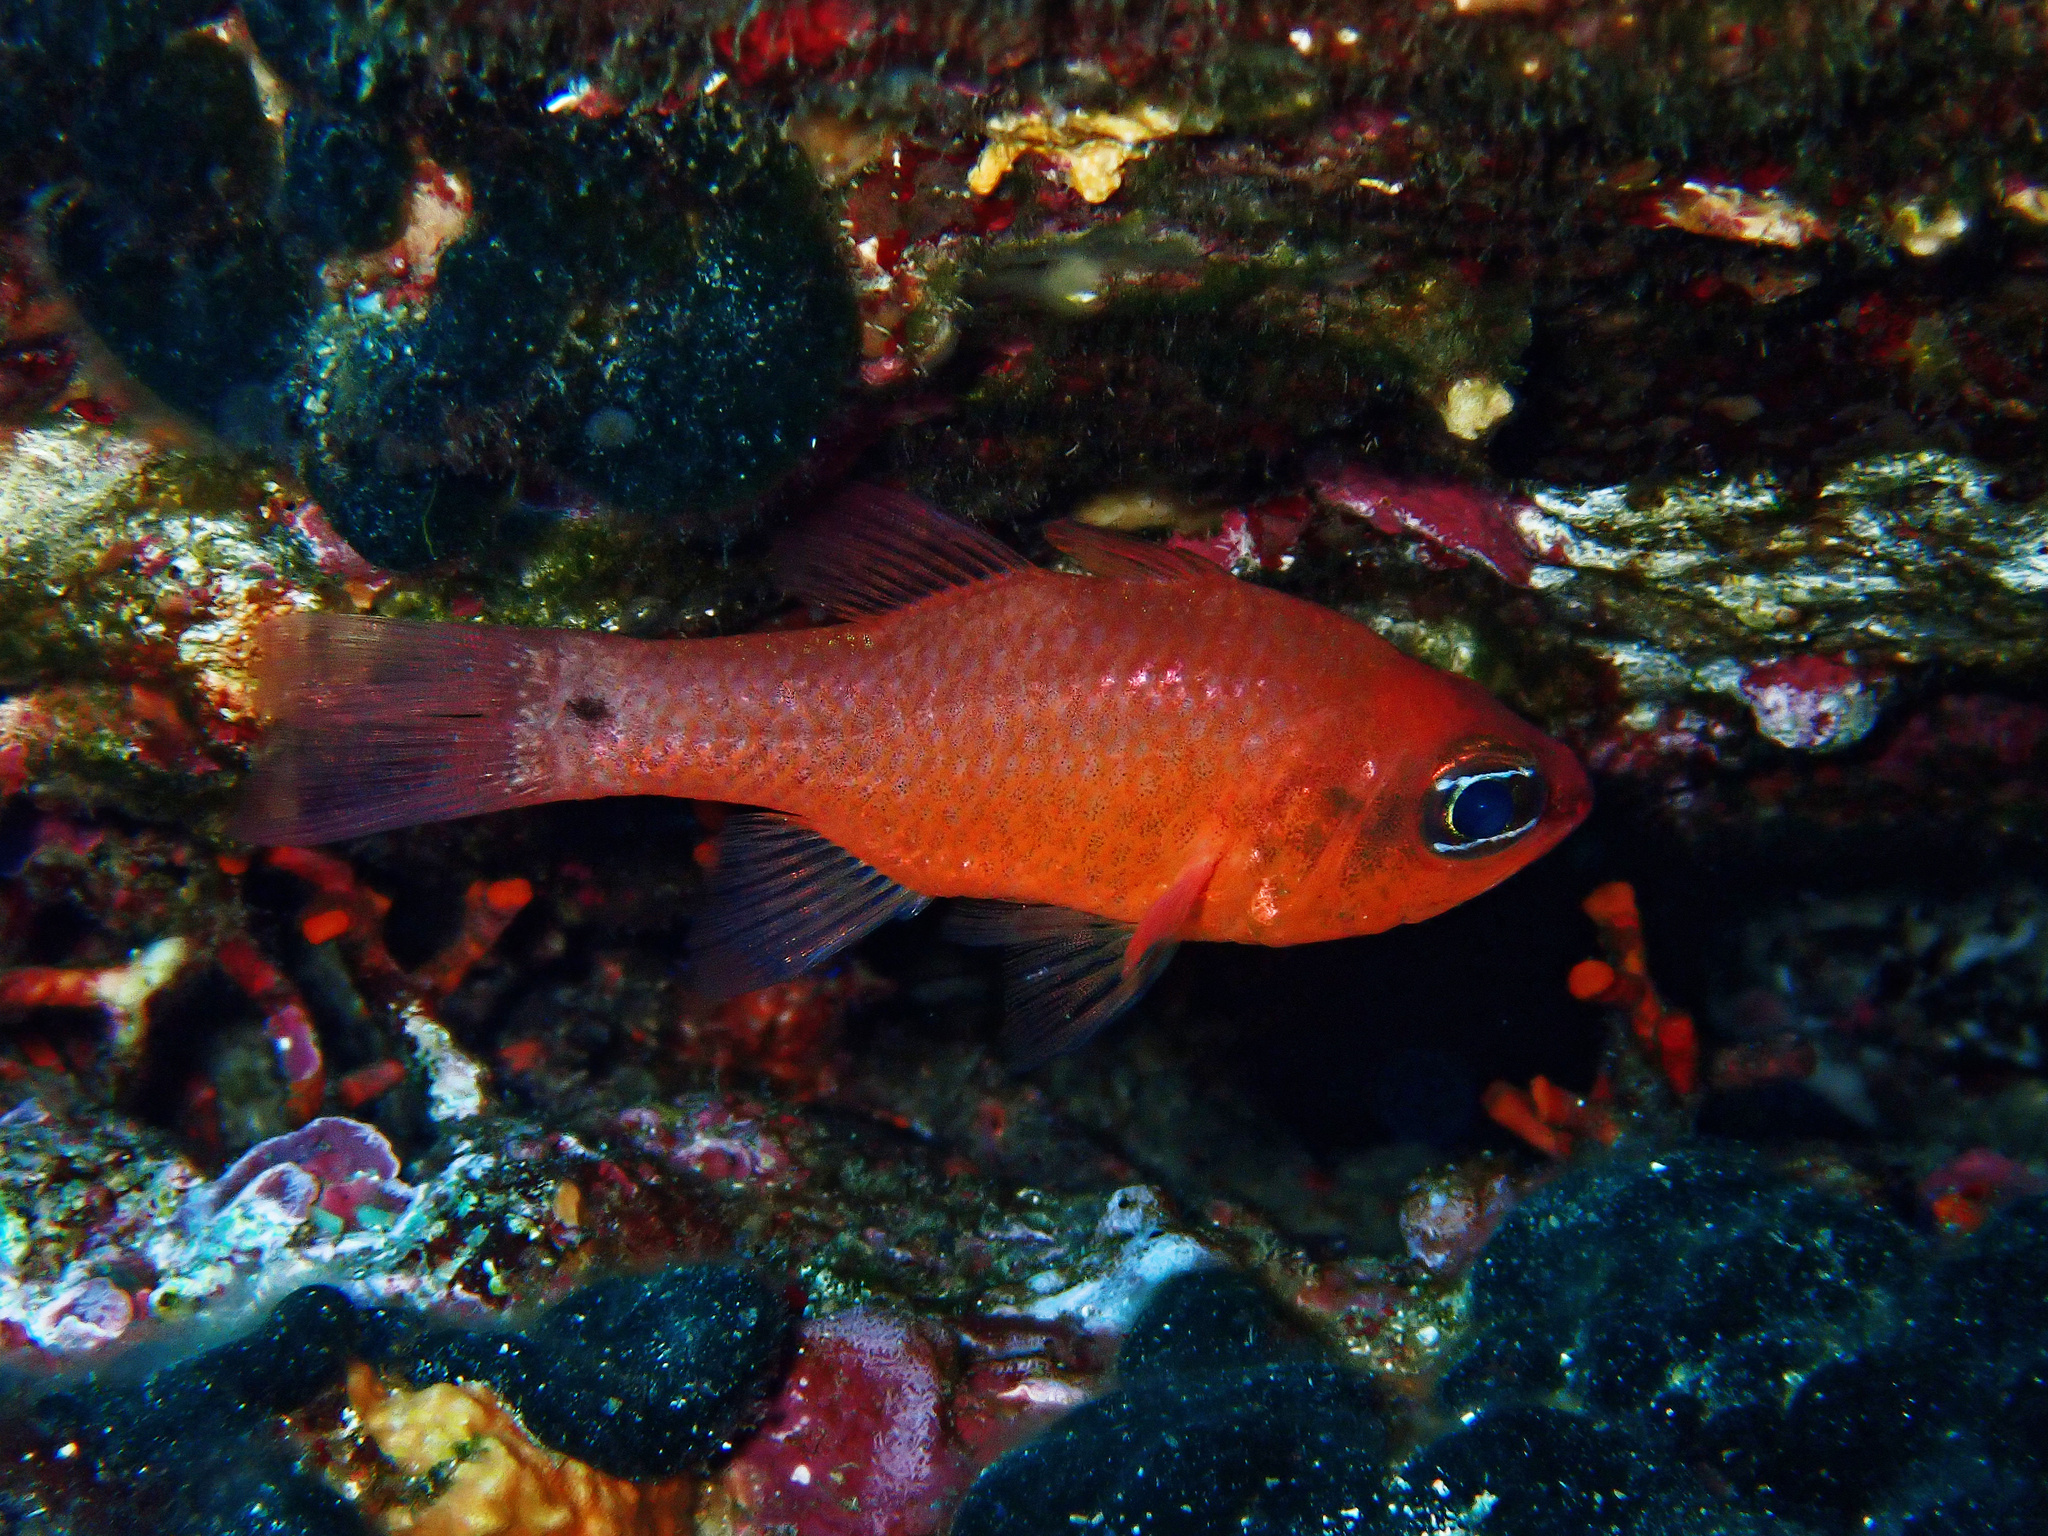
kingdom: Animalia
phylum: Chordata
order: Perciformes
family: Apogonidae
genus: Apogon
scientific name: Apogon imberbis
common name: Cardinal fish
